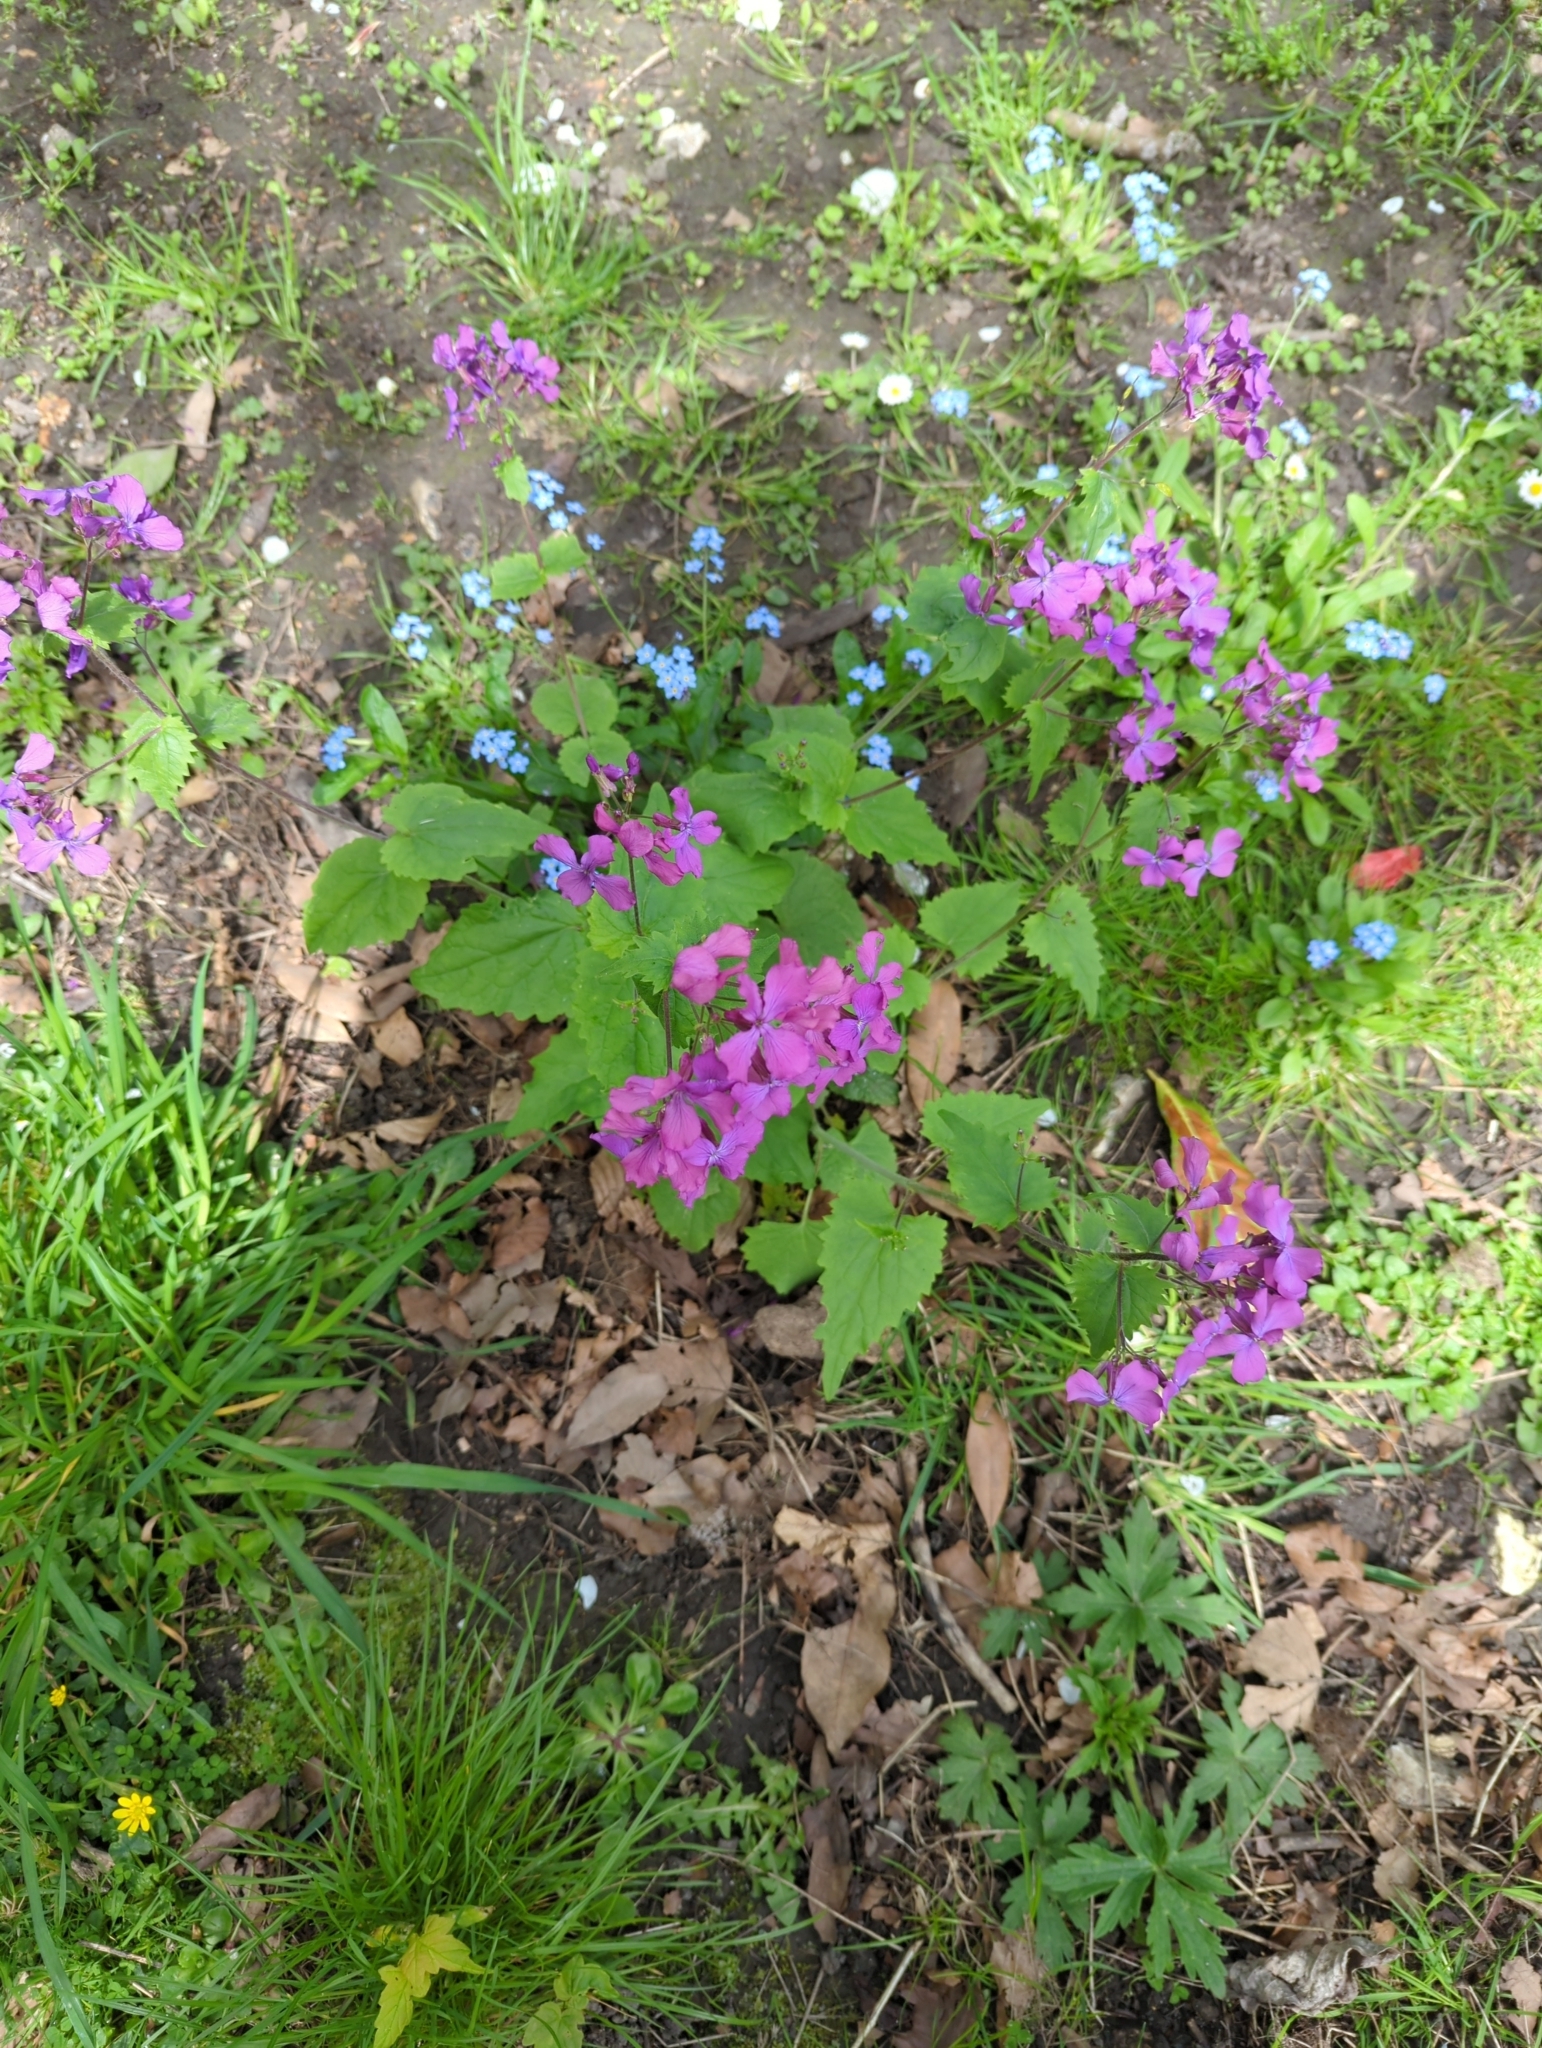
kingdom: Plantae
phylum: Tracheophyta
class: Magnoliopsida
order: Brassicales
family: Brassicaceae
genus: Lunaria
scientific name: Lunaria annua
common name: Honesty
